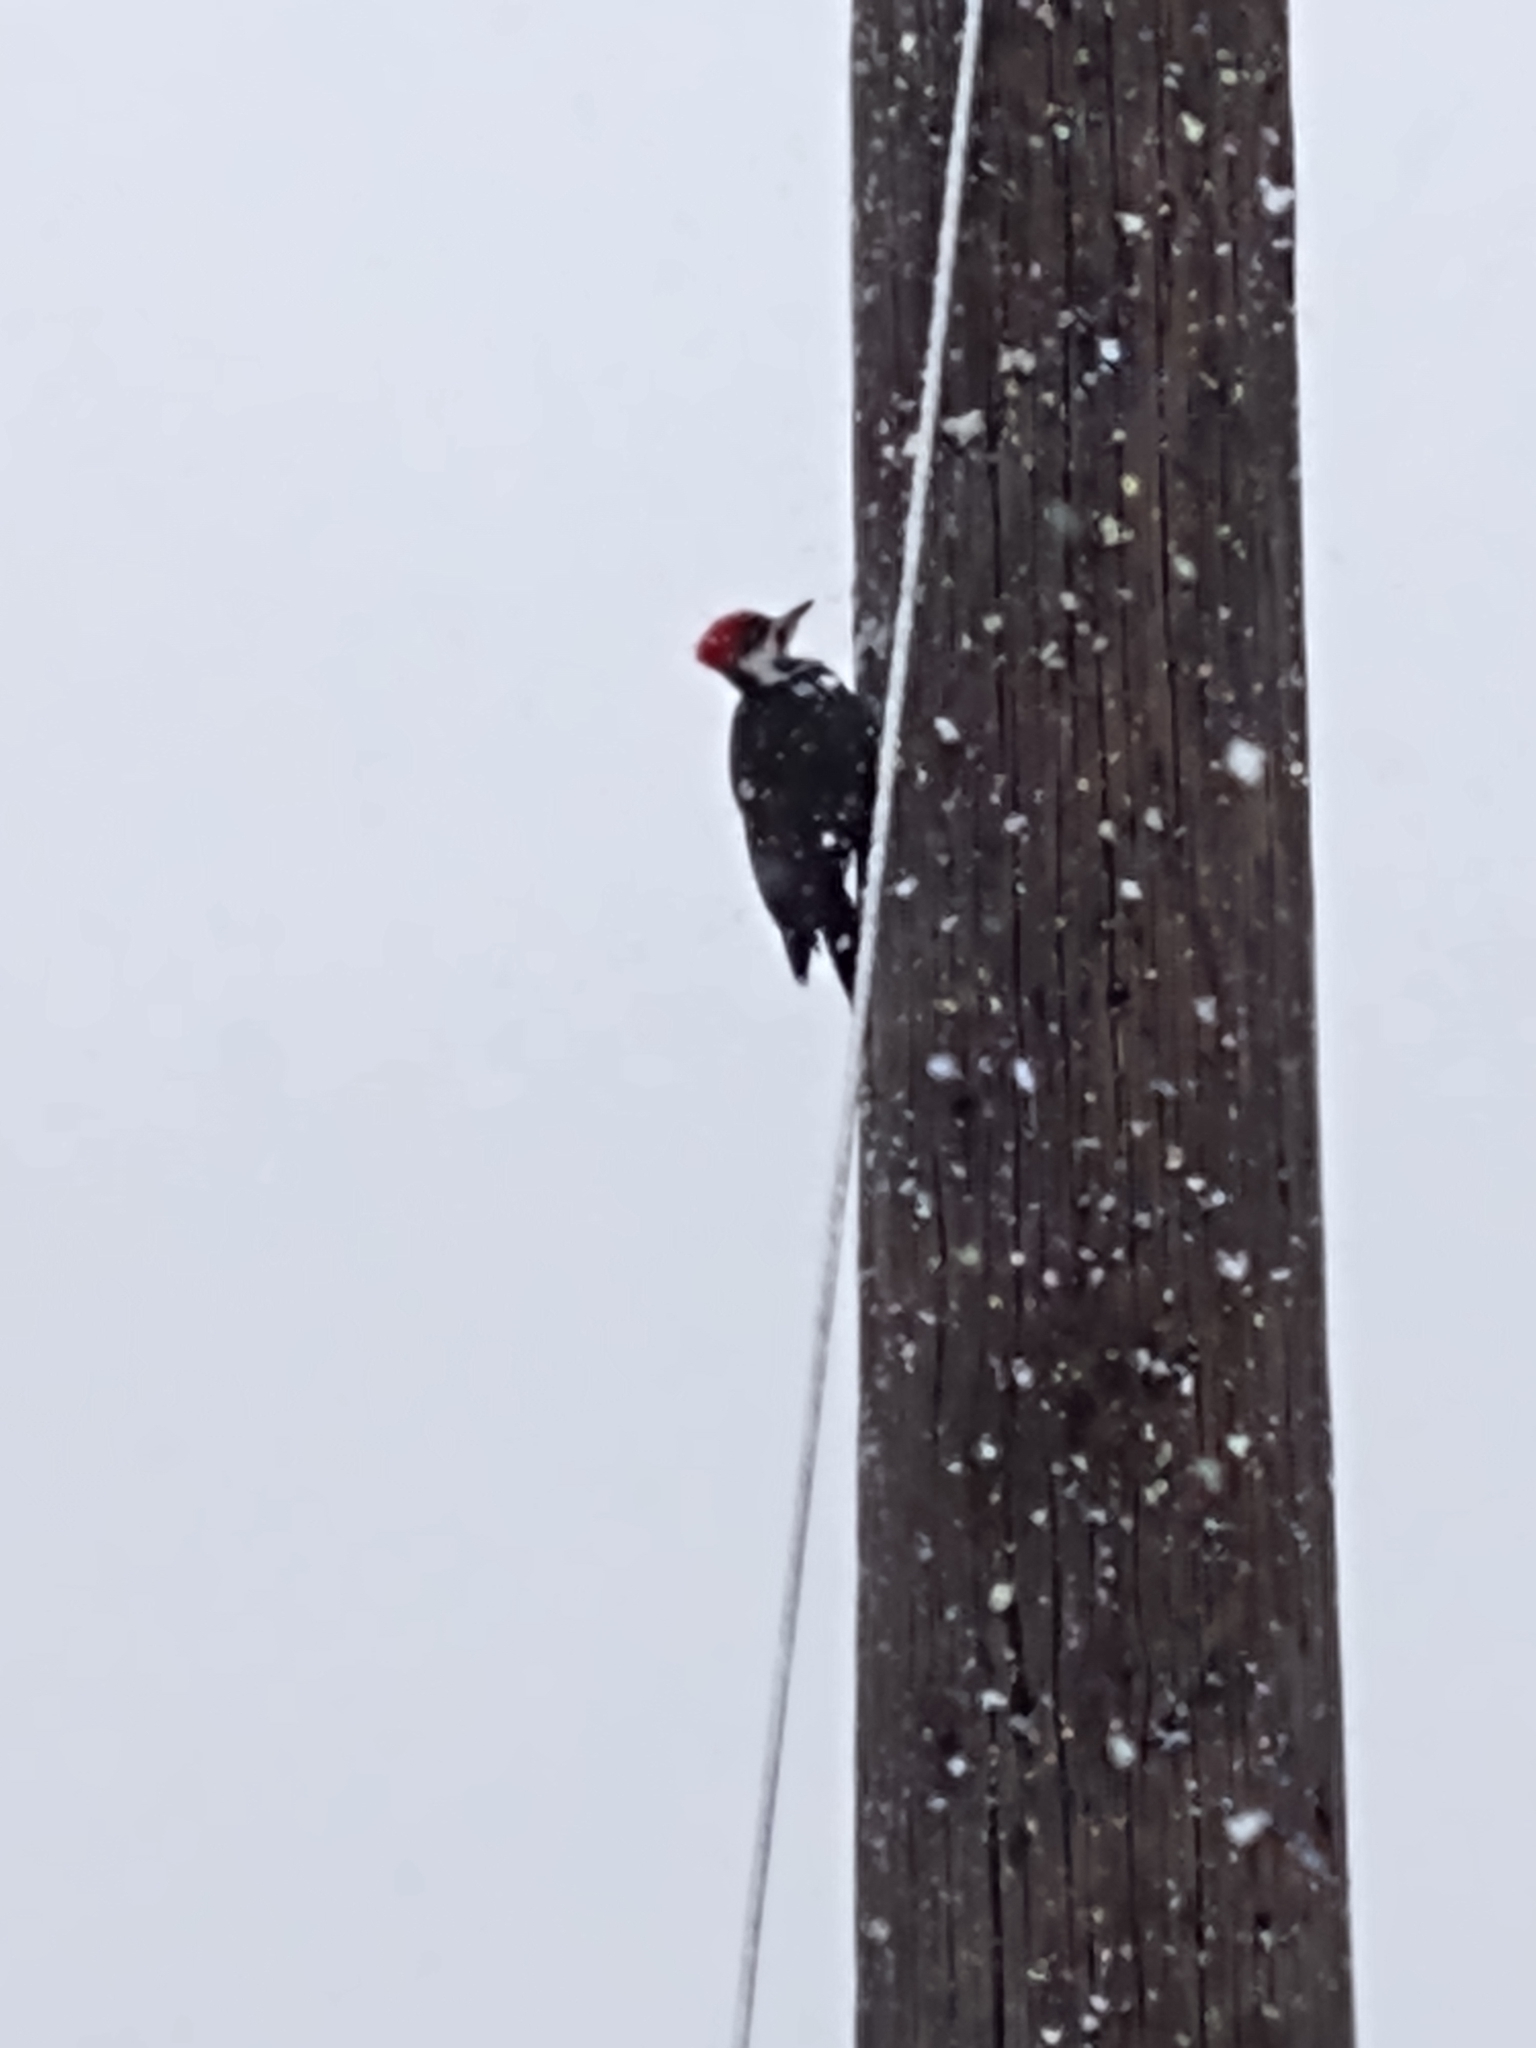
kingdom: Animalia
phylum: Chordata
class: Aves
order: Piciformes
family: Picidae
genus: Dryocopus
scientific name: Dryocopus pileatus
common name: Pileated woodpecker
